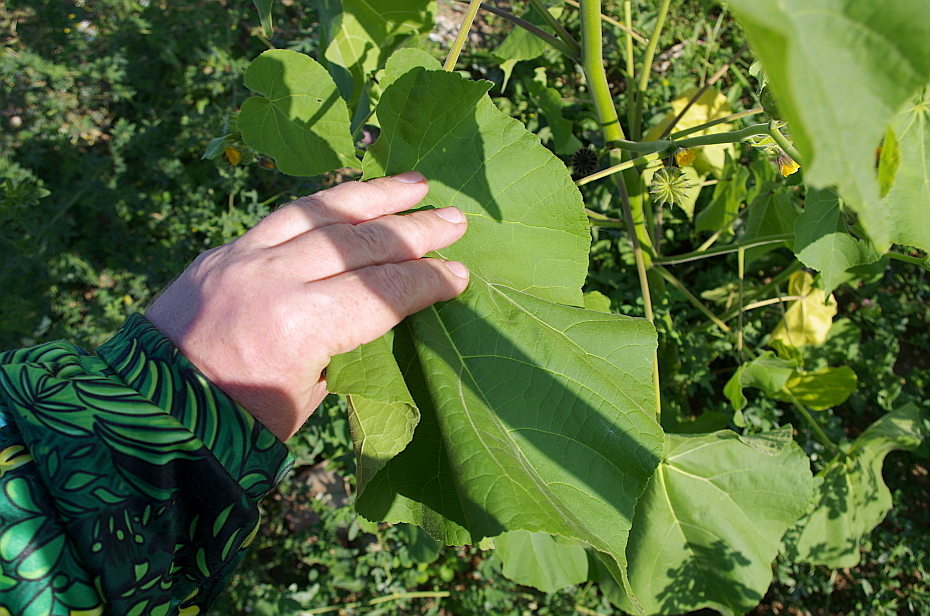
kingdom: Plantae
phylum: Tracheophyta
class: Magnoliopsida
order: Malvales
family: Malvaceae
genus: Abutilon
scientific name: Abutilon theophrasti
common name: Velvetleaf
